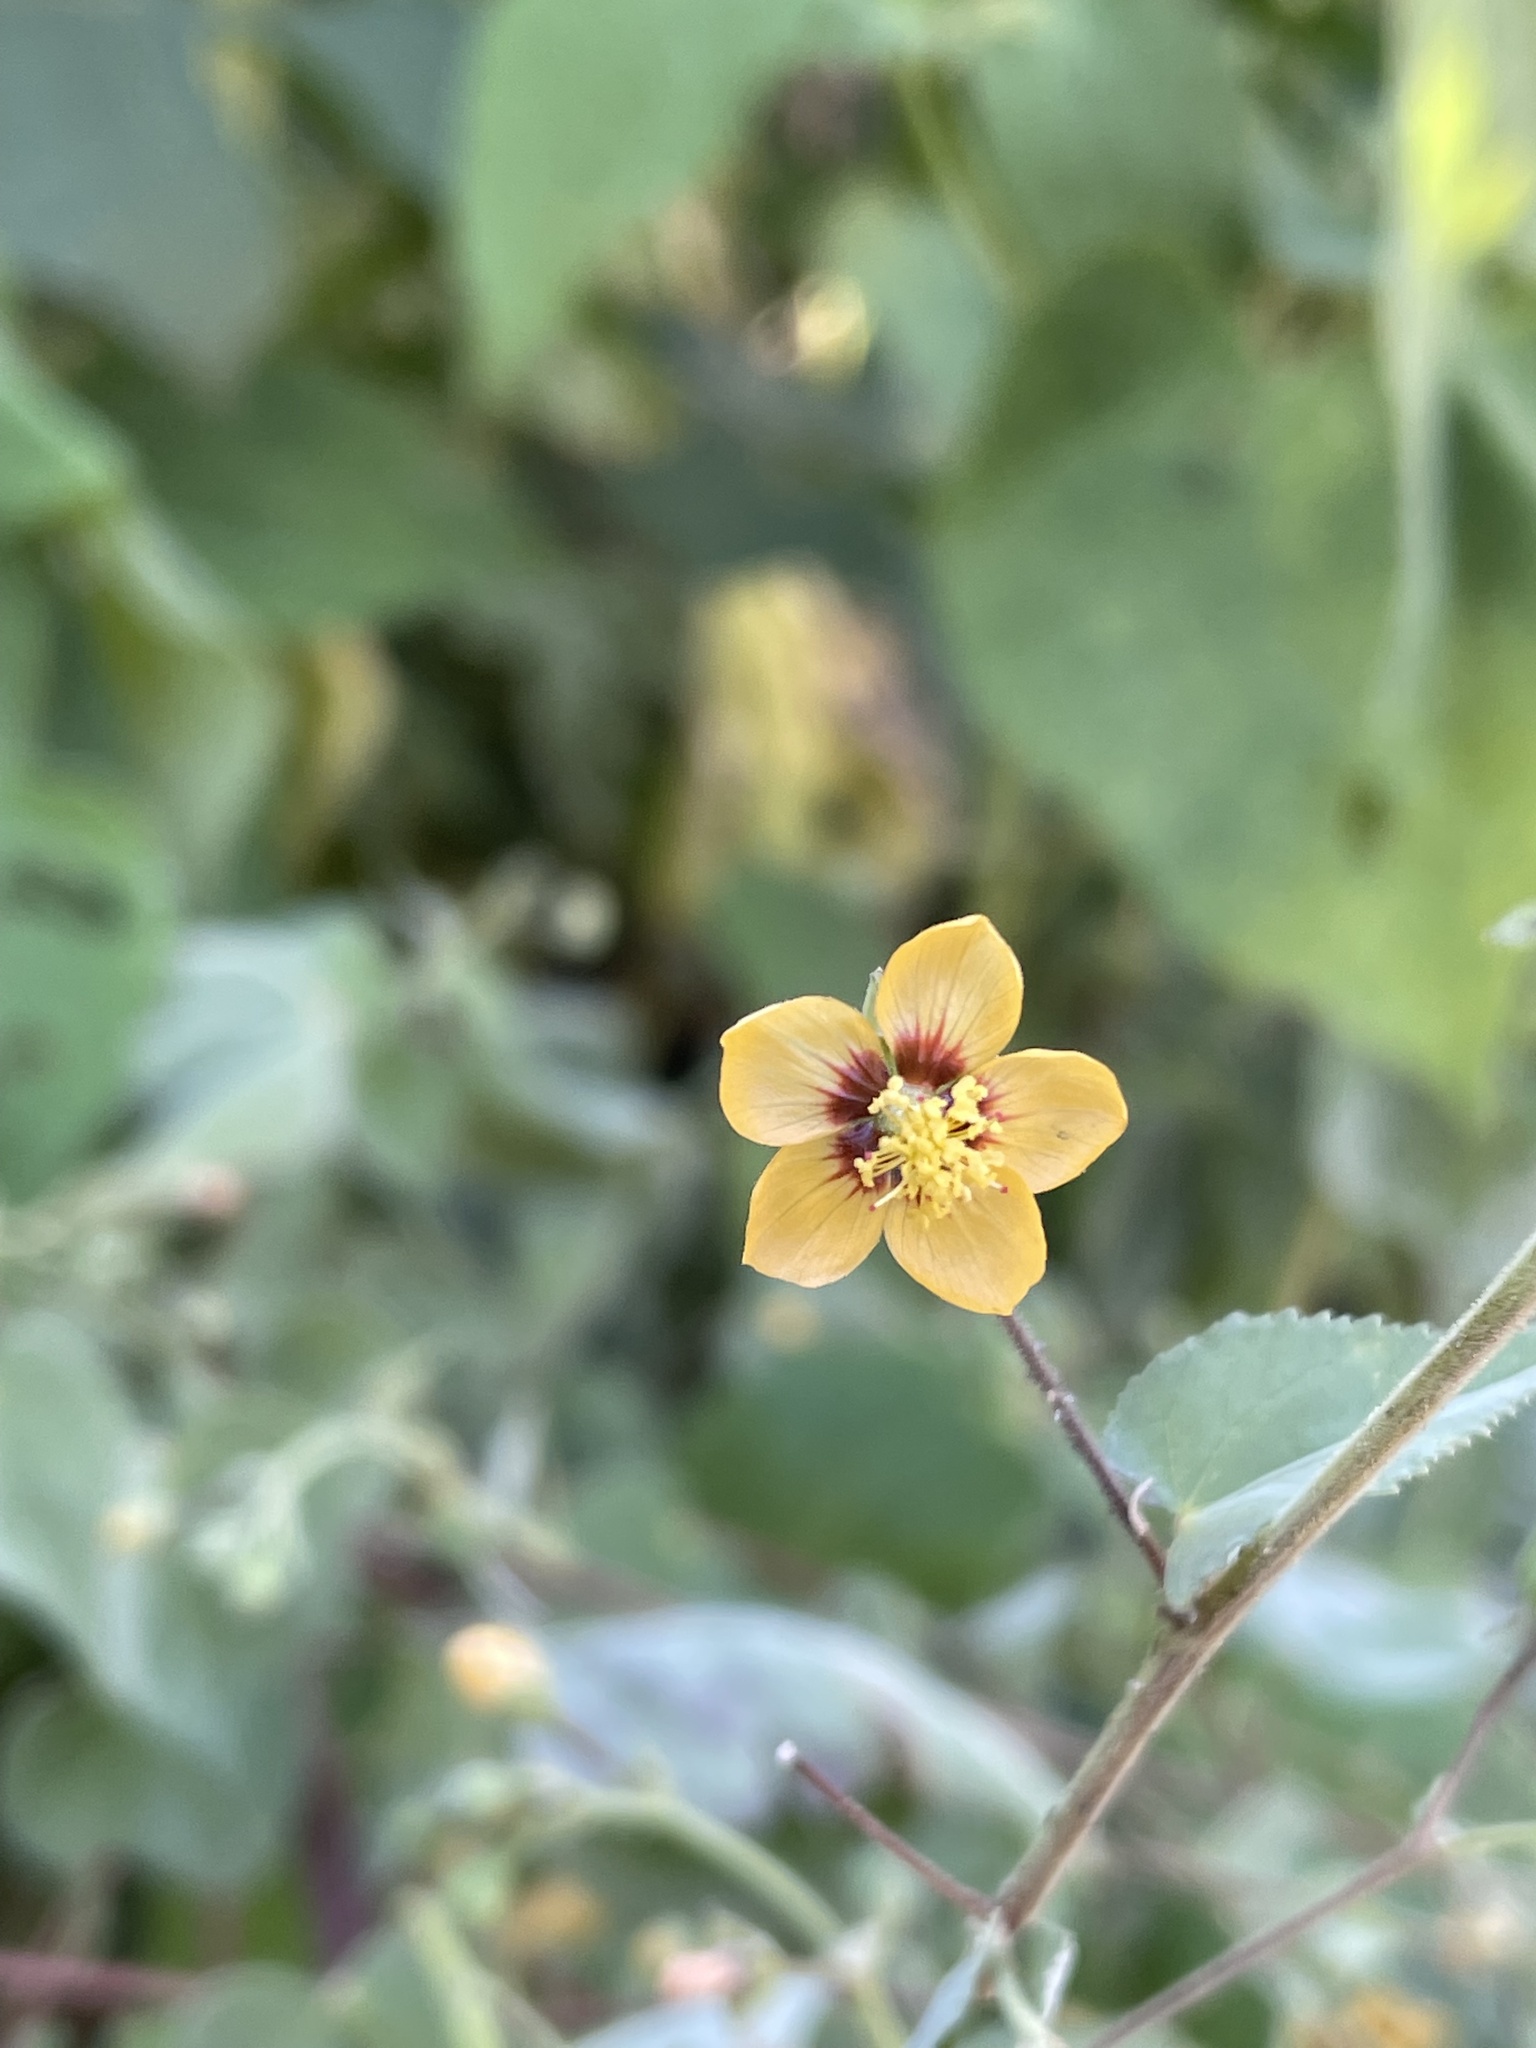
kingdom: Plantae
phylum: Tracheophyta
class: Magnoliopsida
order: Malvales
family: Malvaceae
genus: Abutilon
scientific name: Abutilon trisulcatum
